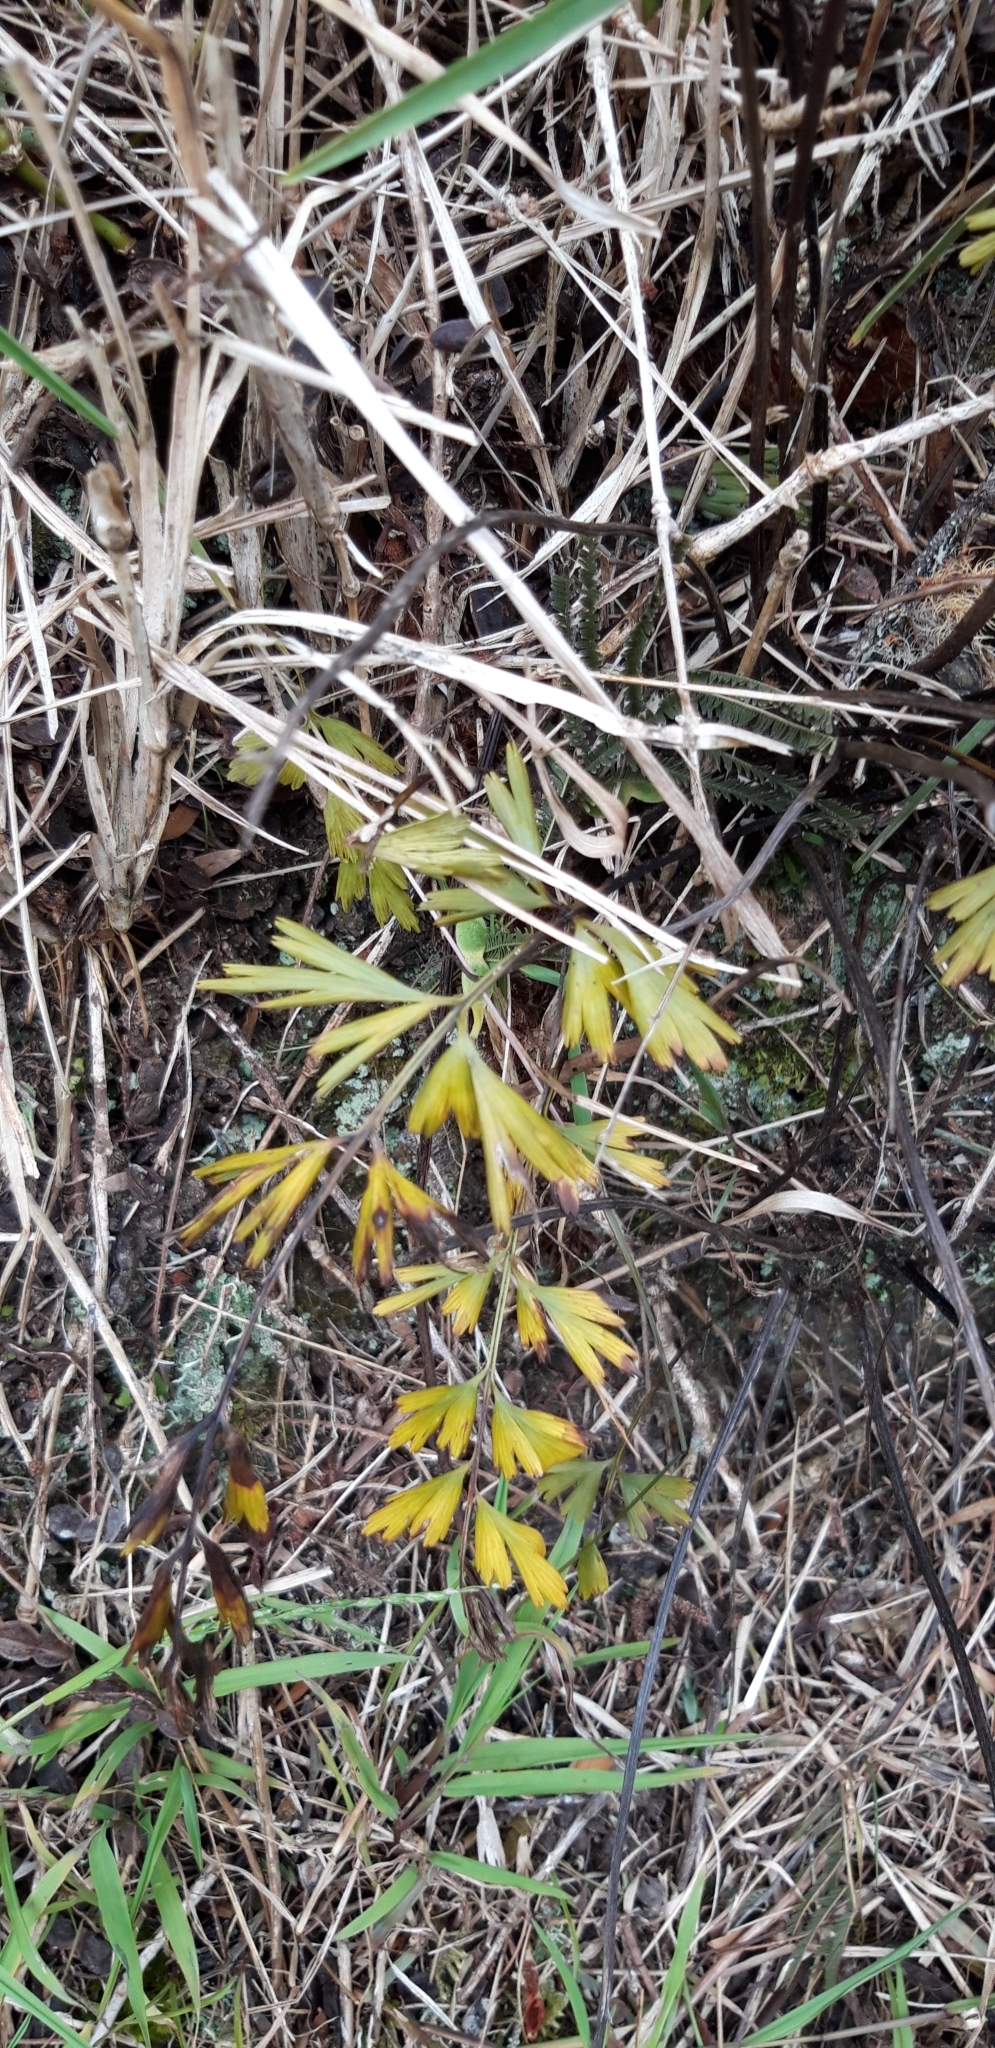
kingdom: Plantae
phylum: Tracheophyta
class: Polypodiopsida
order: Polypodiales
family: Aspleniaceae
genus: Asplenium
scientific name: Asplenium aethiopicum
